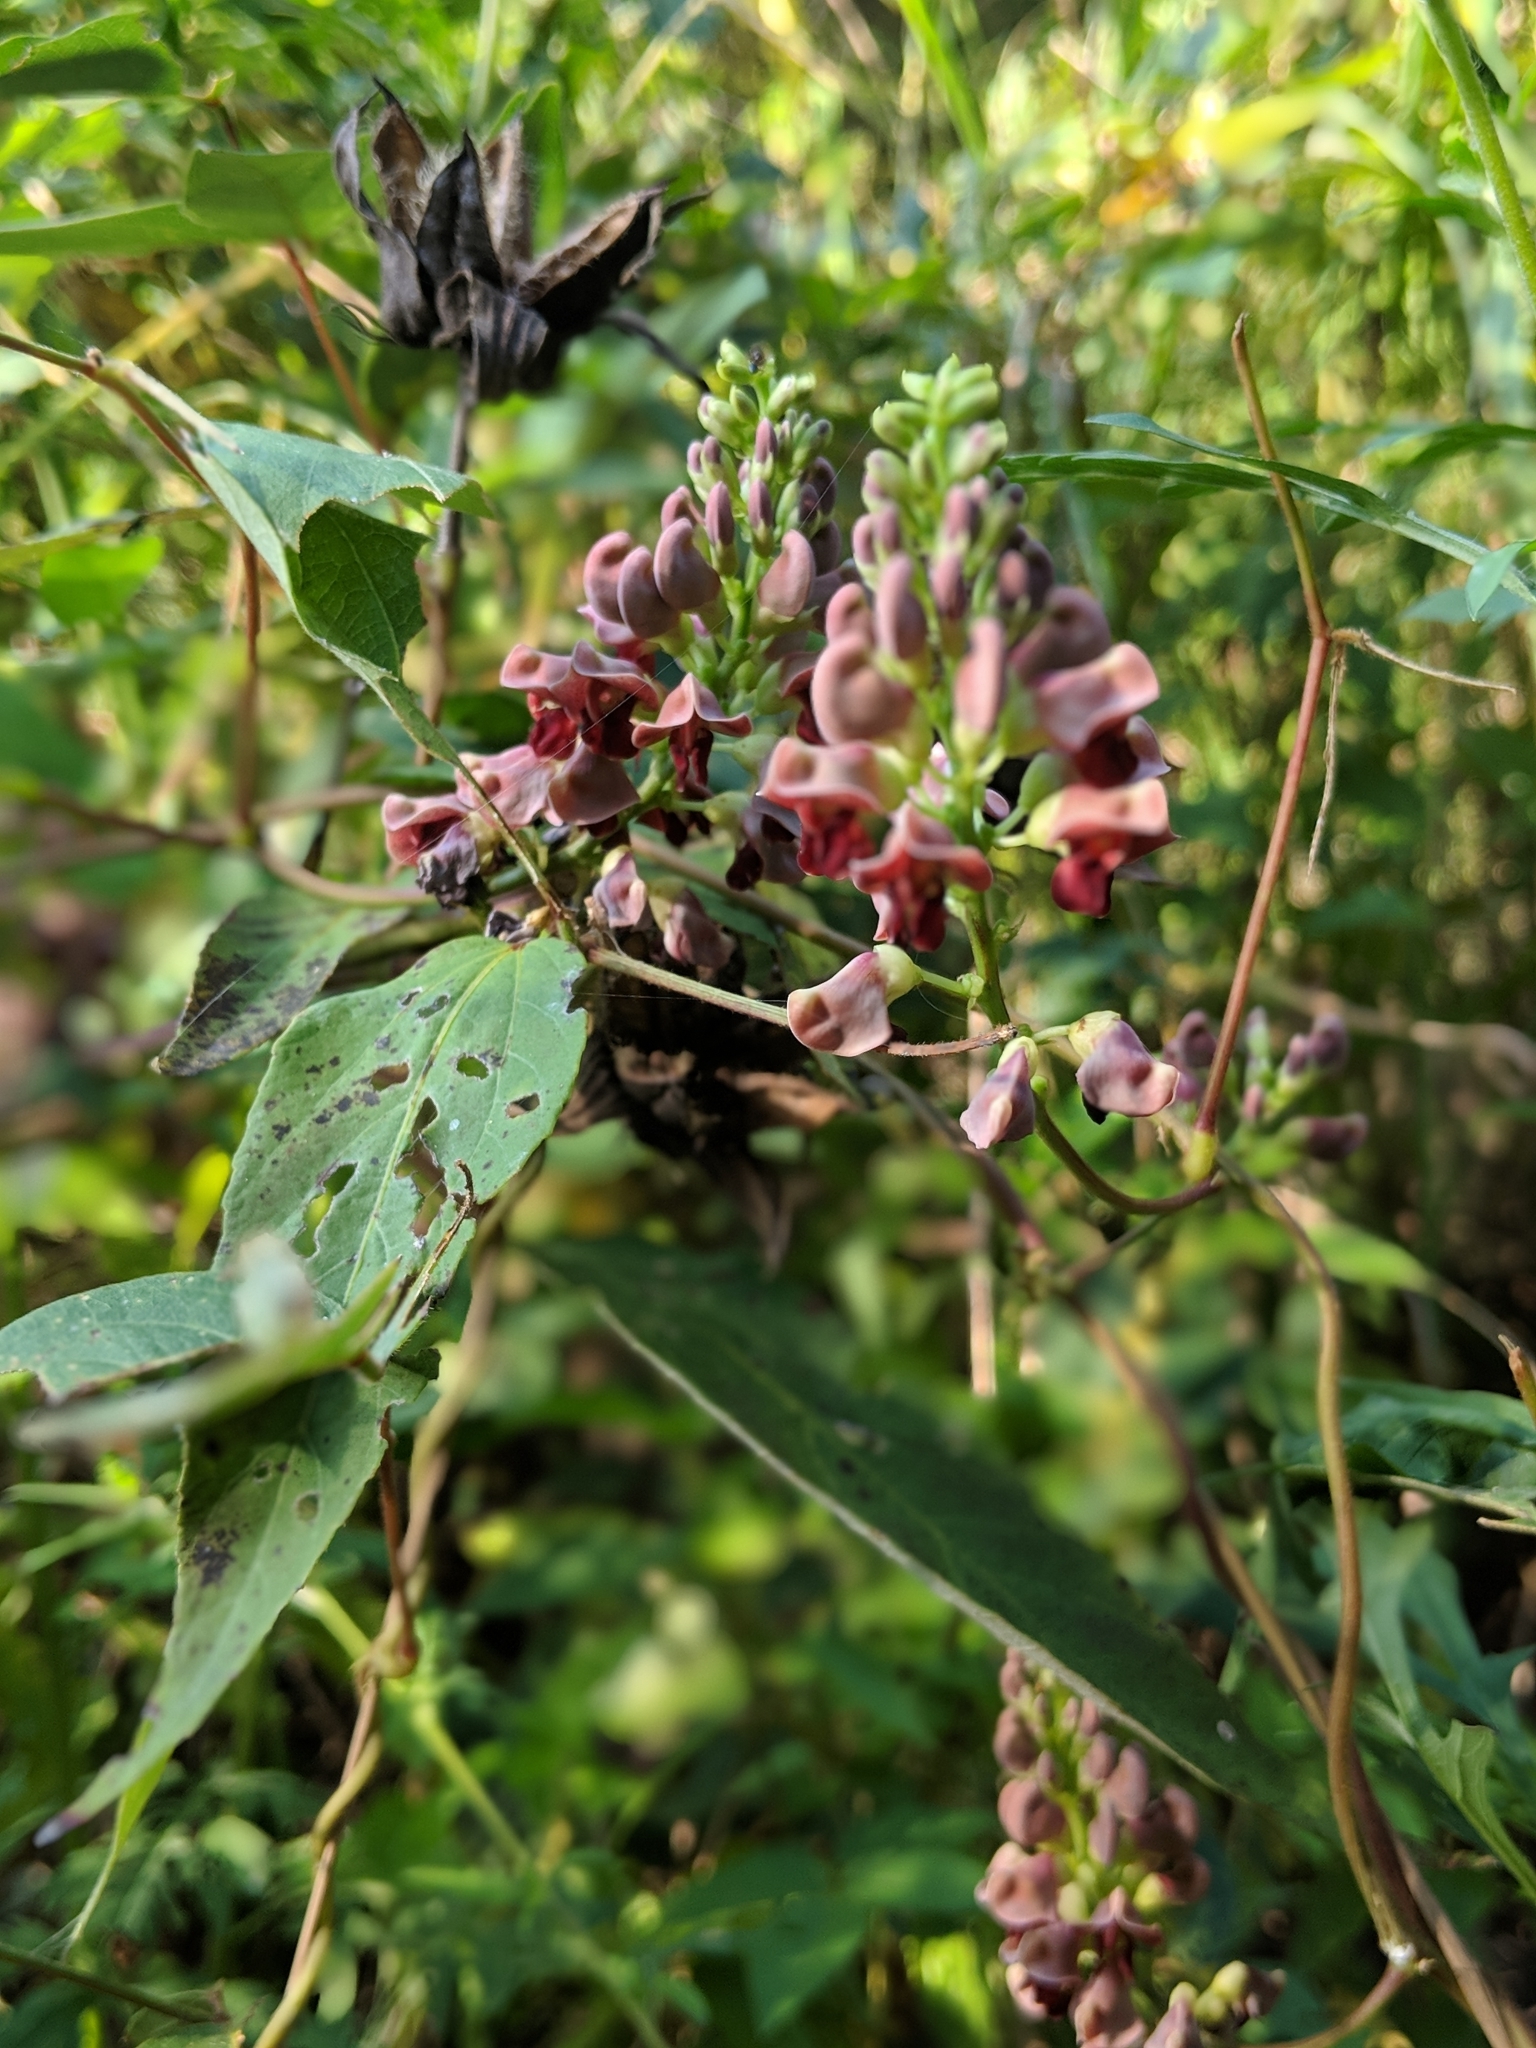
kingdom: Plantae
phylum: Tracheophyta
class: Magnoliopsida
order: Fabales
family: Fabaceae
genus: Apios
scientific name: Apios americana
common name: American potato-bean
